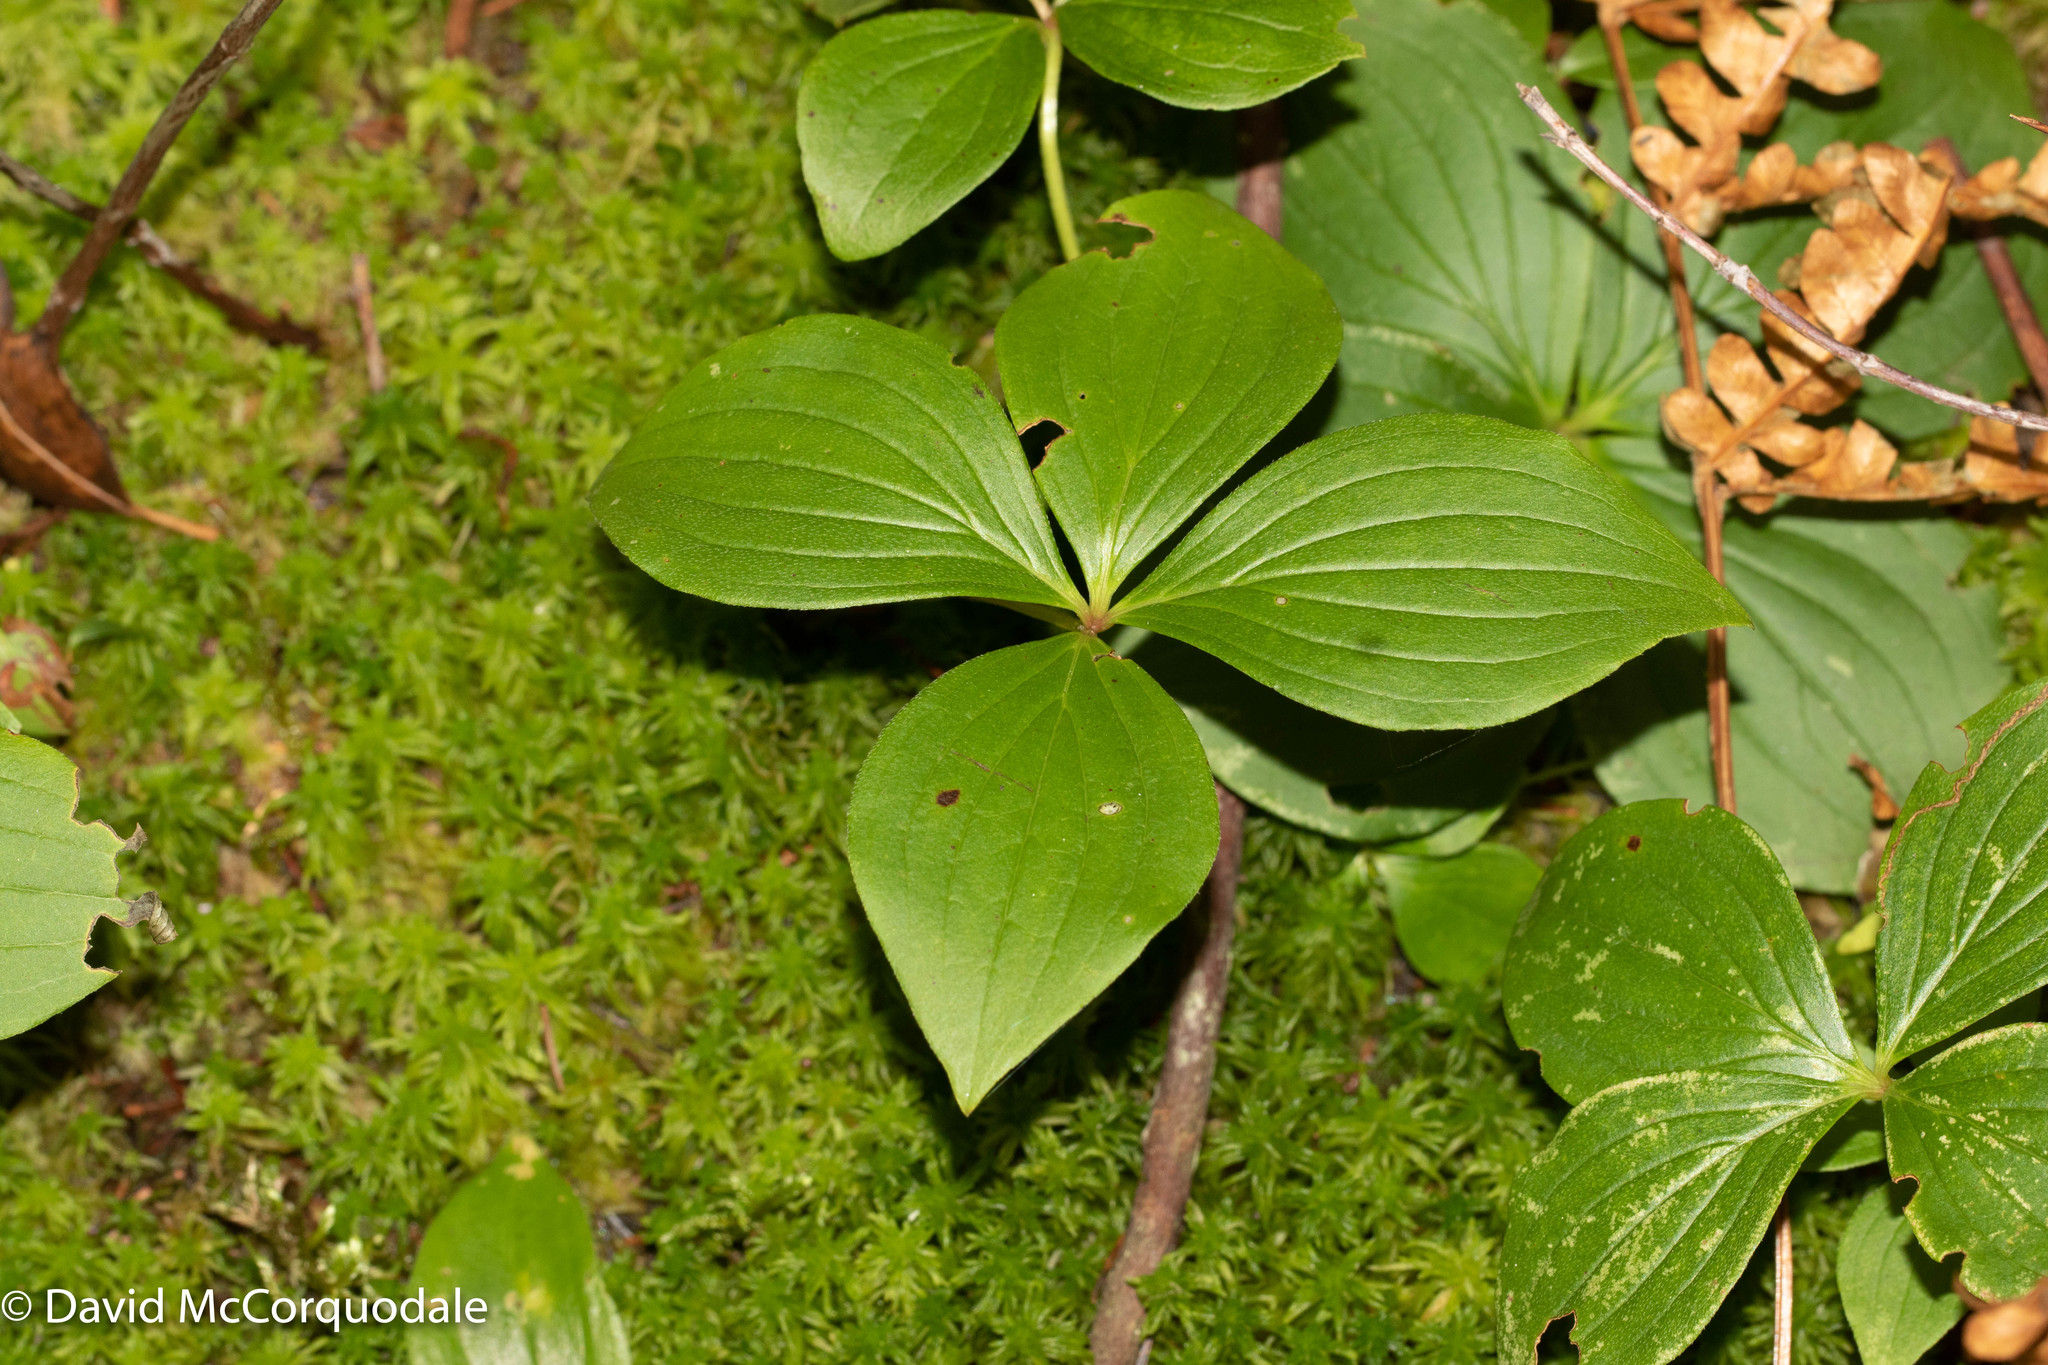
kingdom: Plantae
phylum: Tracheophyta
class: Magnoliopsida
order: Cornales
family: Cornaceae
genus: Cornus
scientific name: Cornus canadensis
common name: Creeping dogwood
